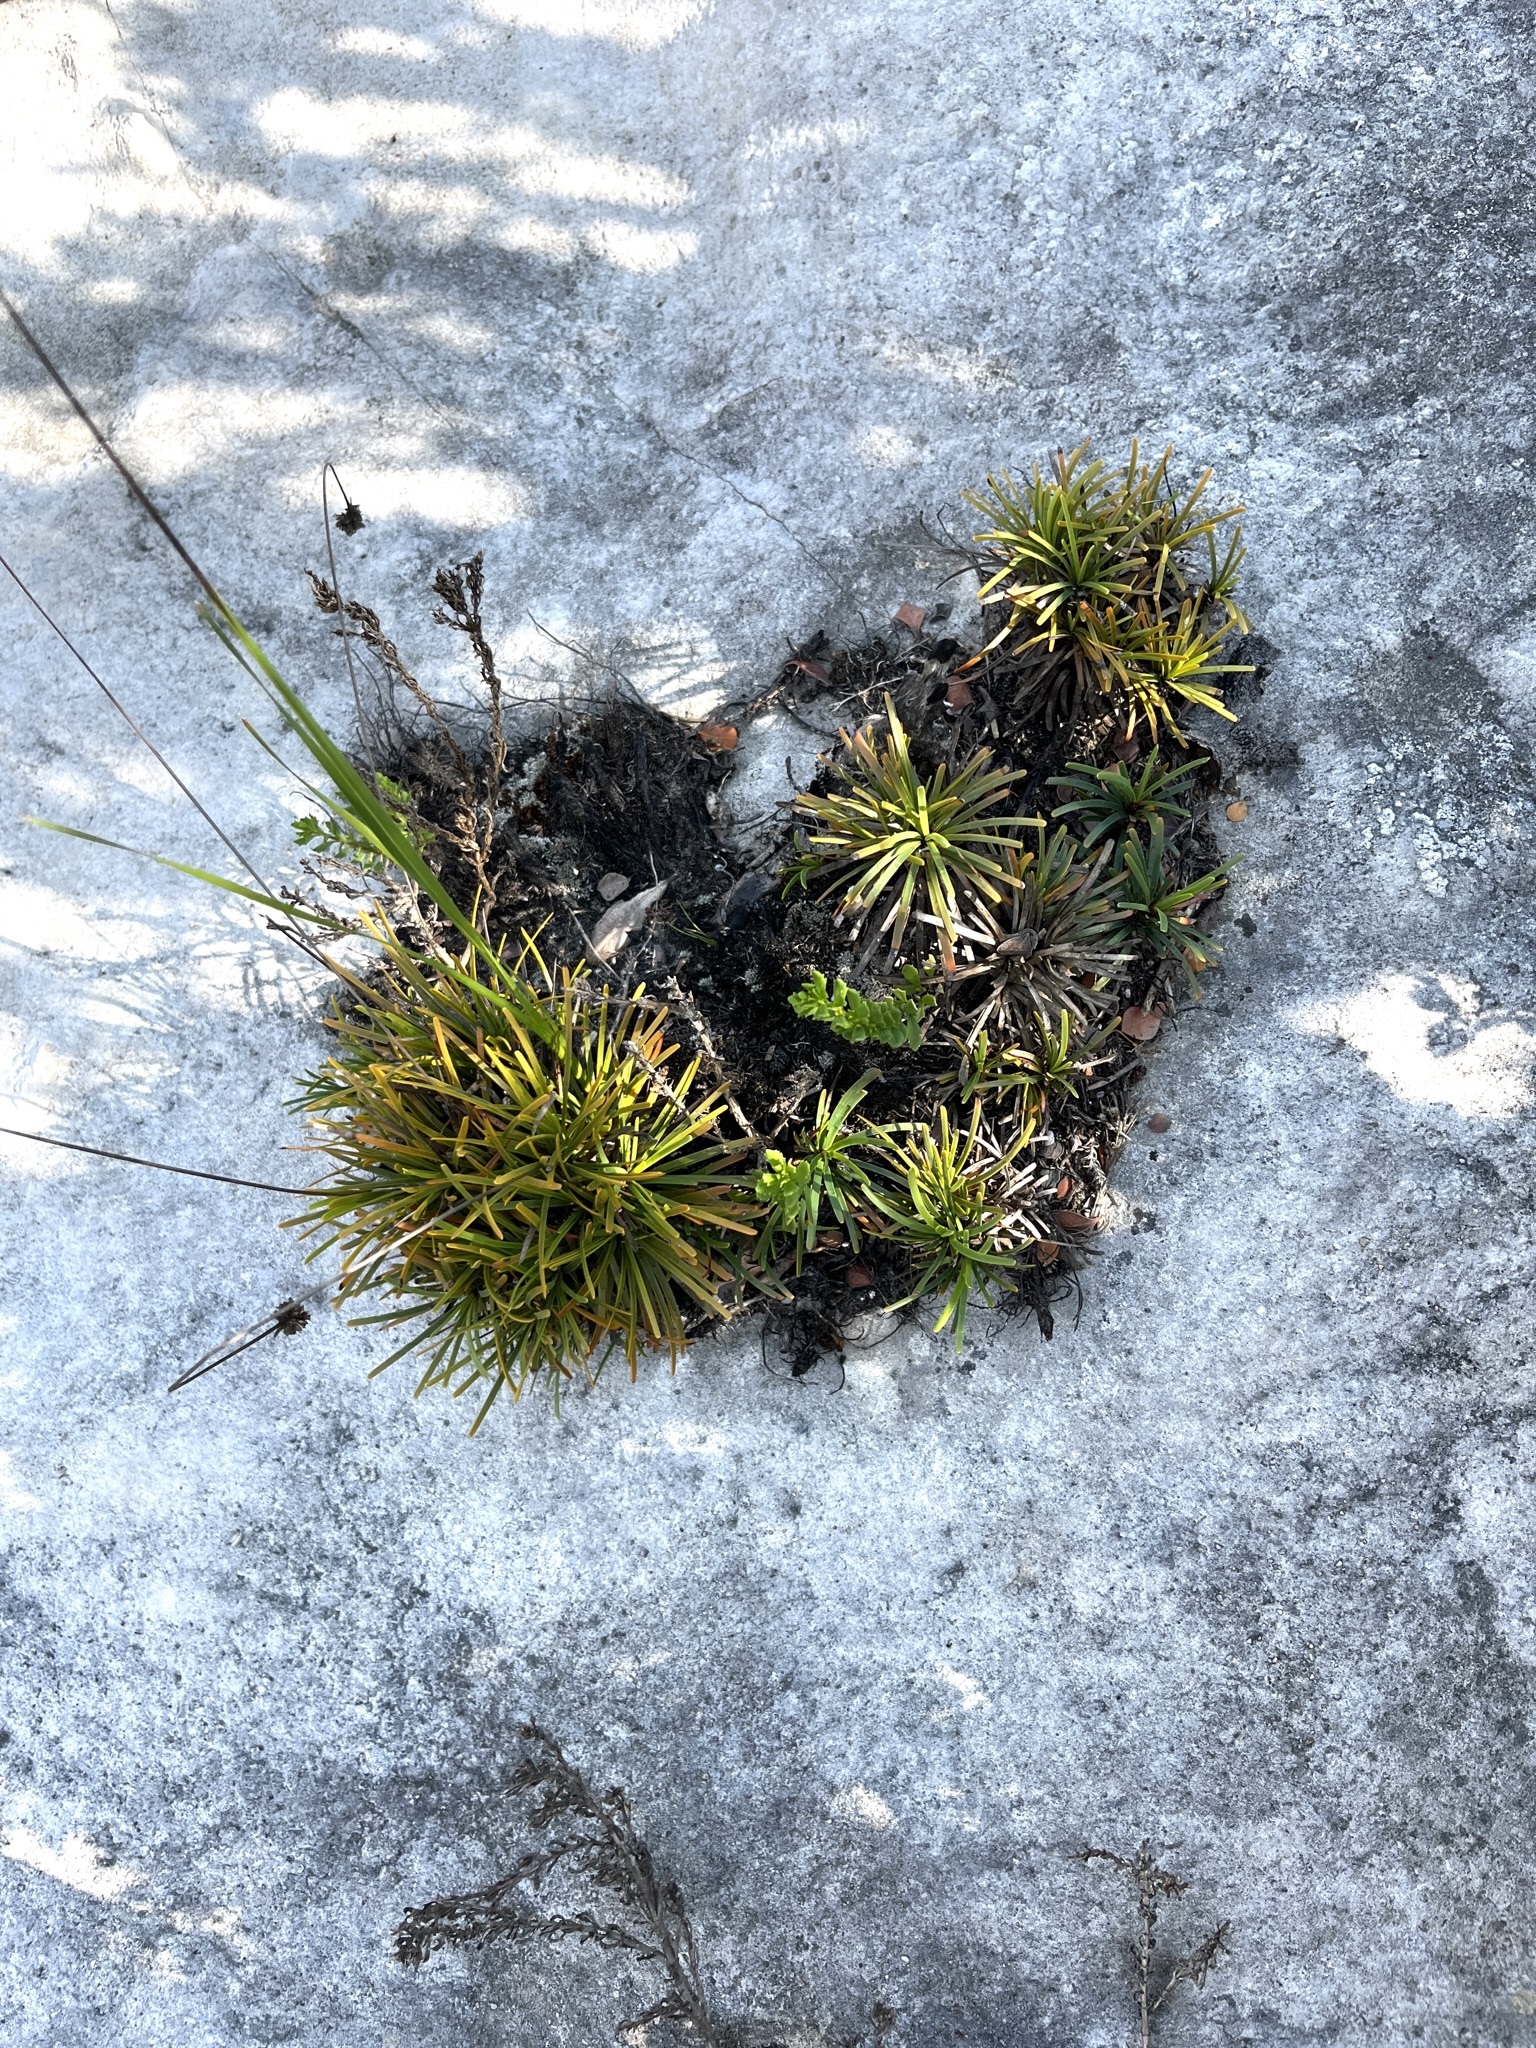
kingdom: Plantae
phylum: Tracheophyta
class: Liliopsida
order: Poales
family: Cyperaceae
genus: Ficinia
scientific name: Ficinia praemorsa
